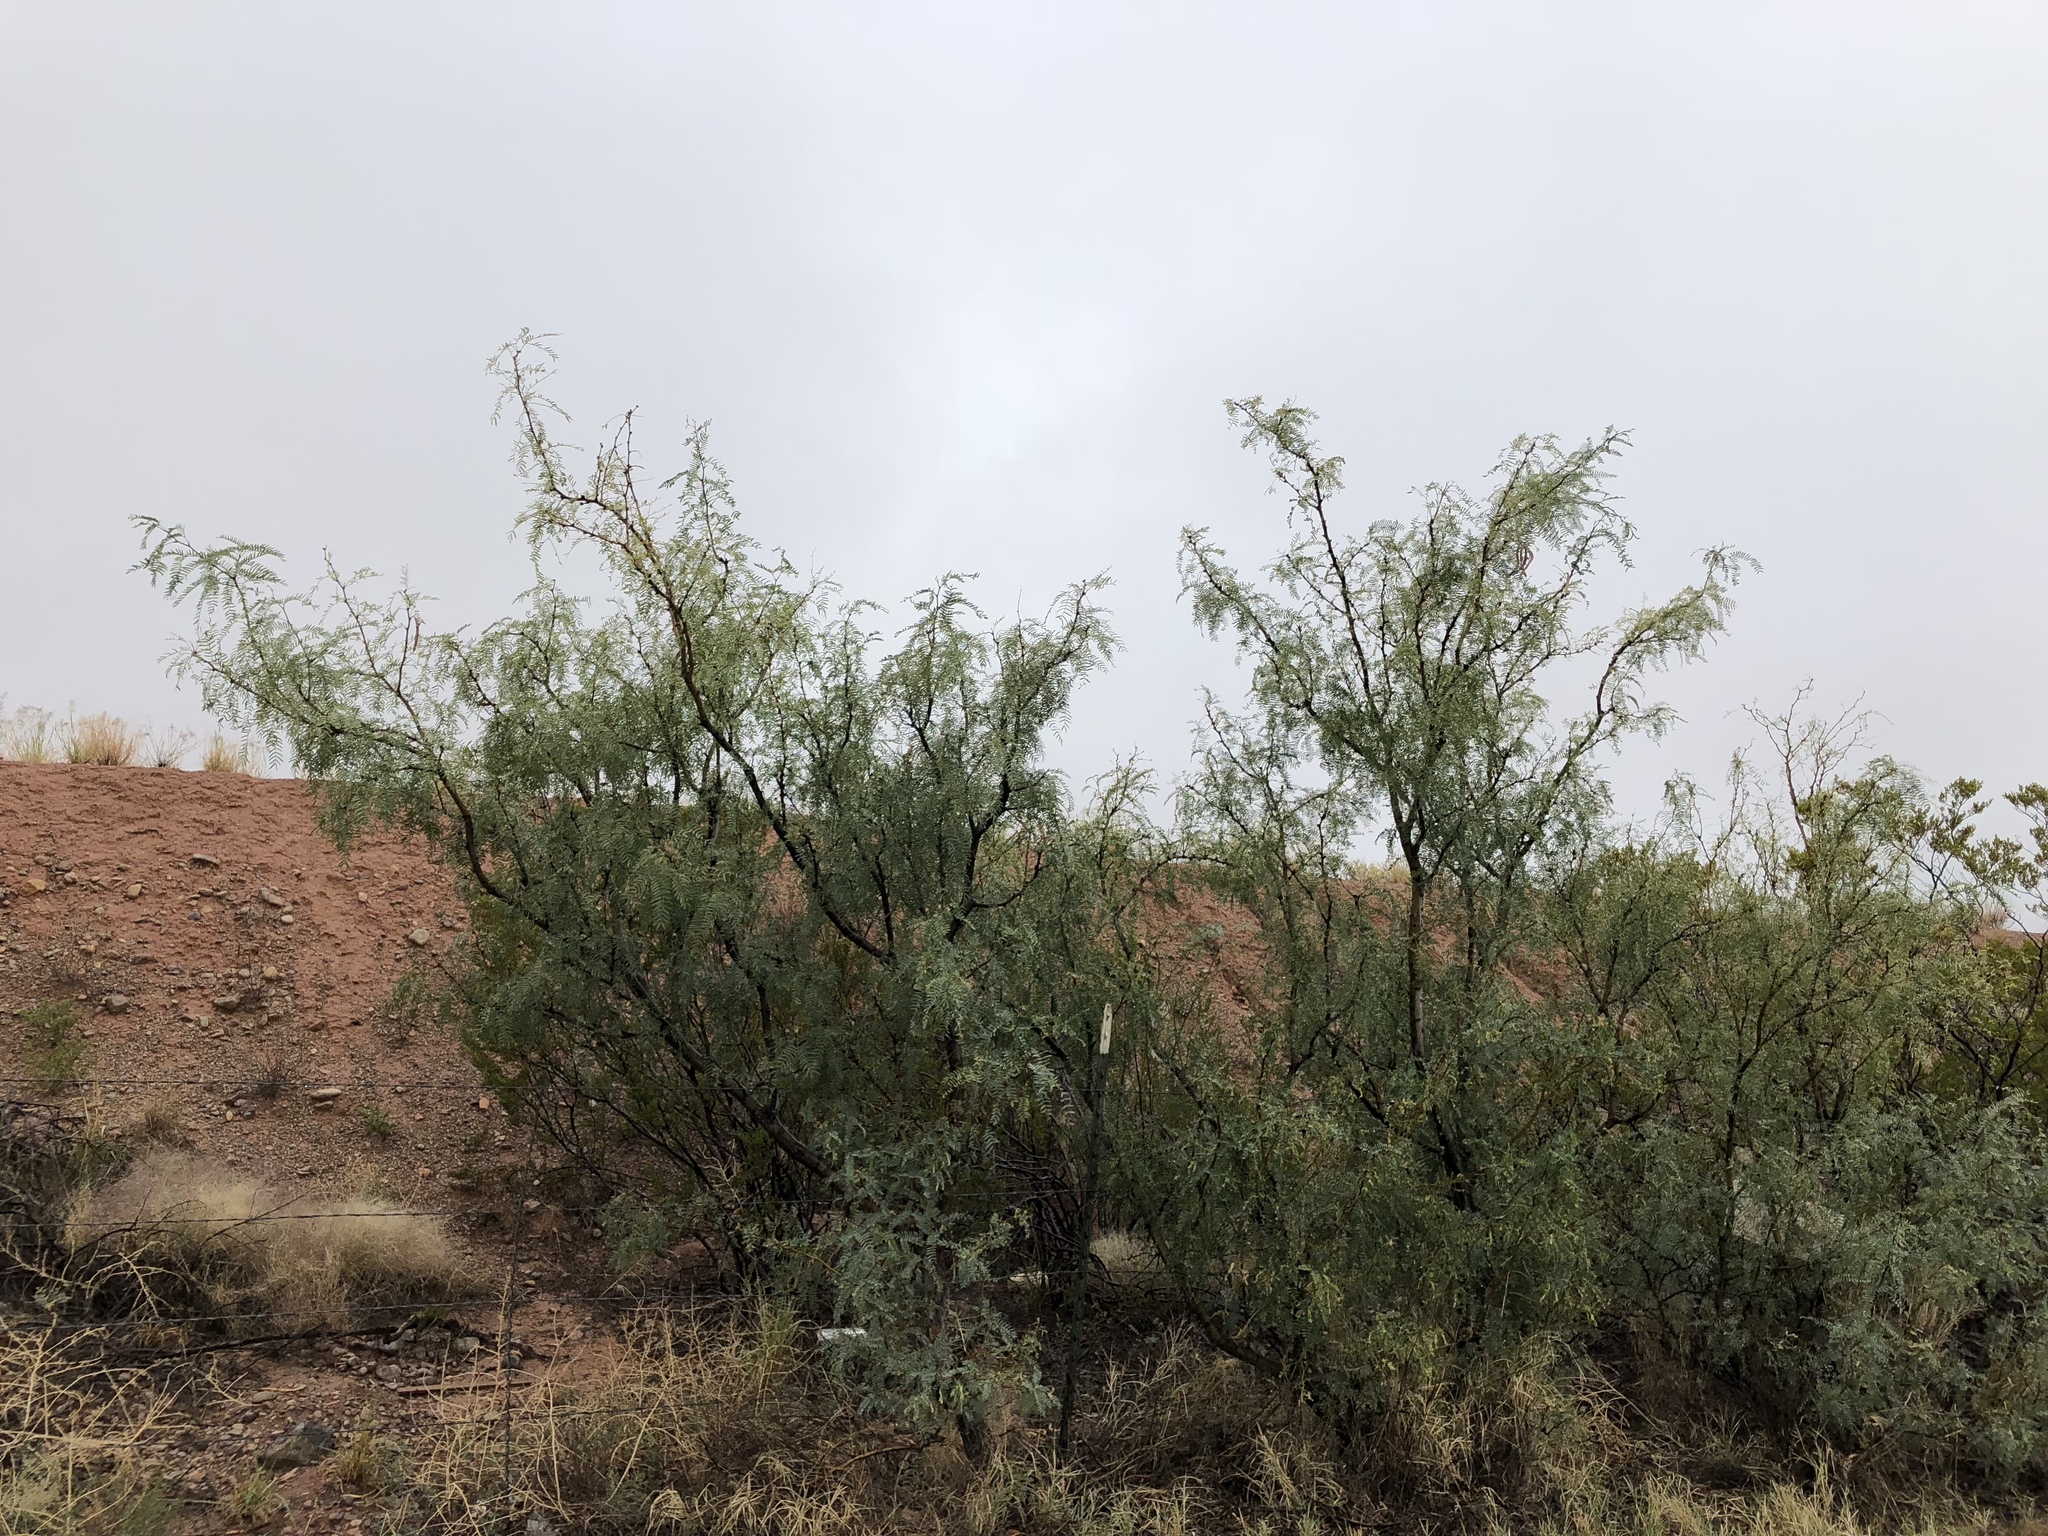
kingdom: Plantae
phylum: Tracheophyta
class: Magnoliopsida
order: Fabales
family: Fabaceae
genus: Prosopis
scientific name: Prosopis glandulosa
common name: Honey mesquite
